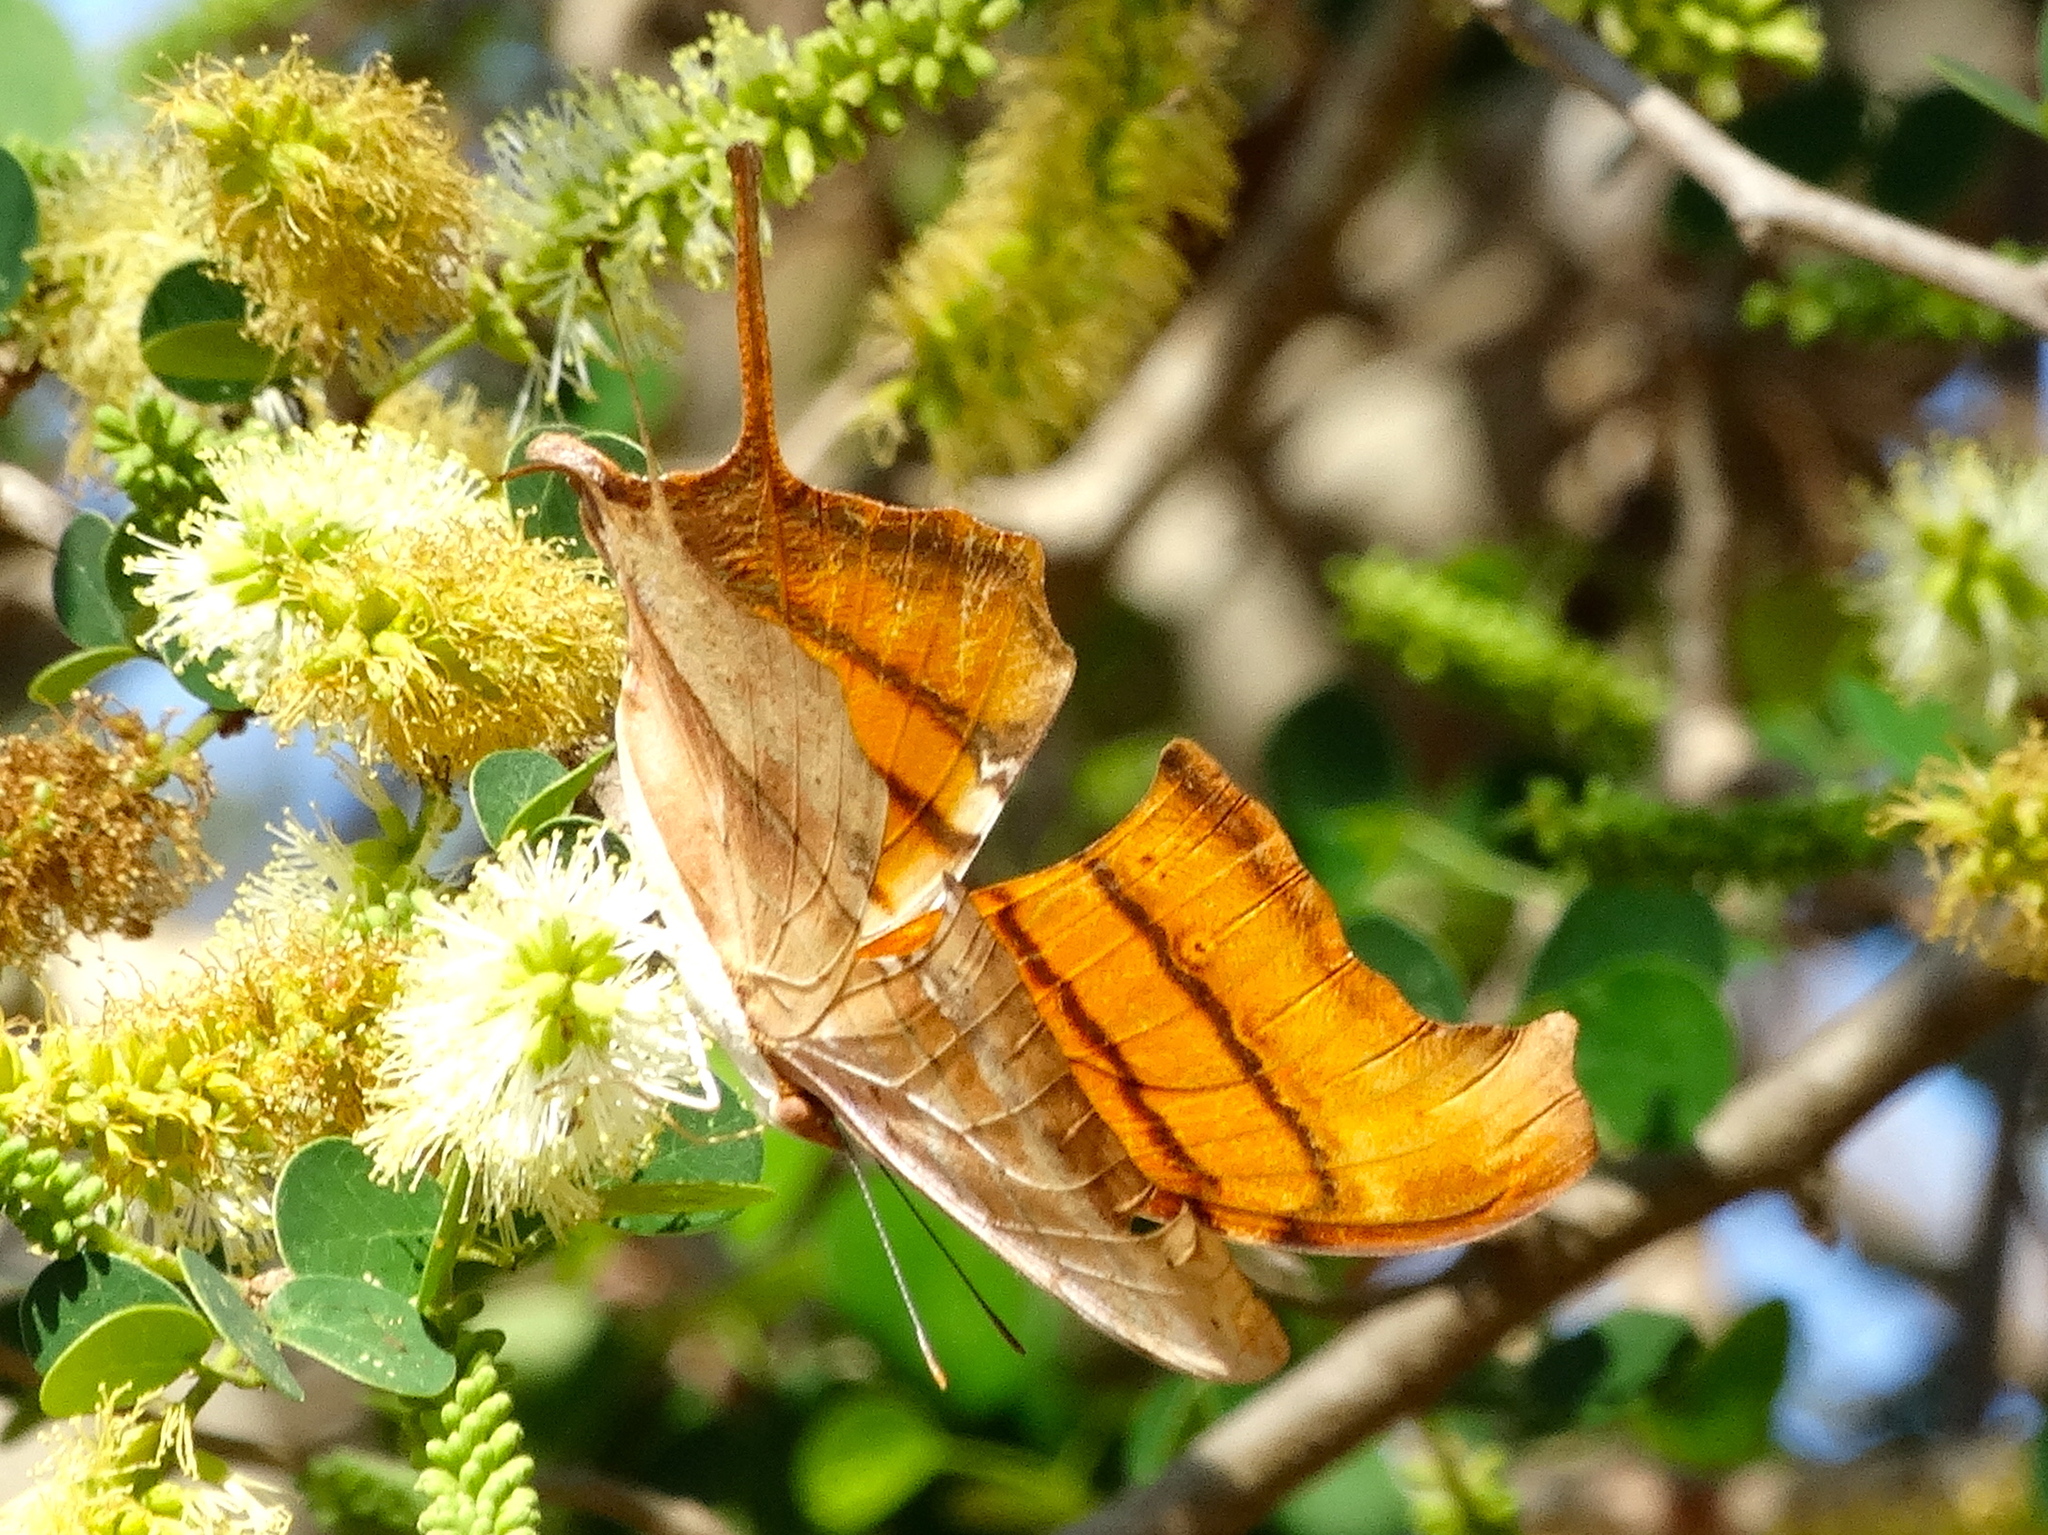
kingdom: Animalia
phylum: Arthropoda
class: Insecta
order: Lepidoptera
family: Nymphalidae
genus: Marpesia
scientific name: Marpesia petreus
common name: Red dagger wing
